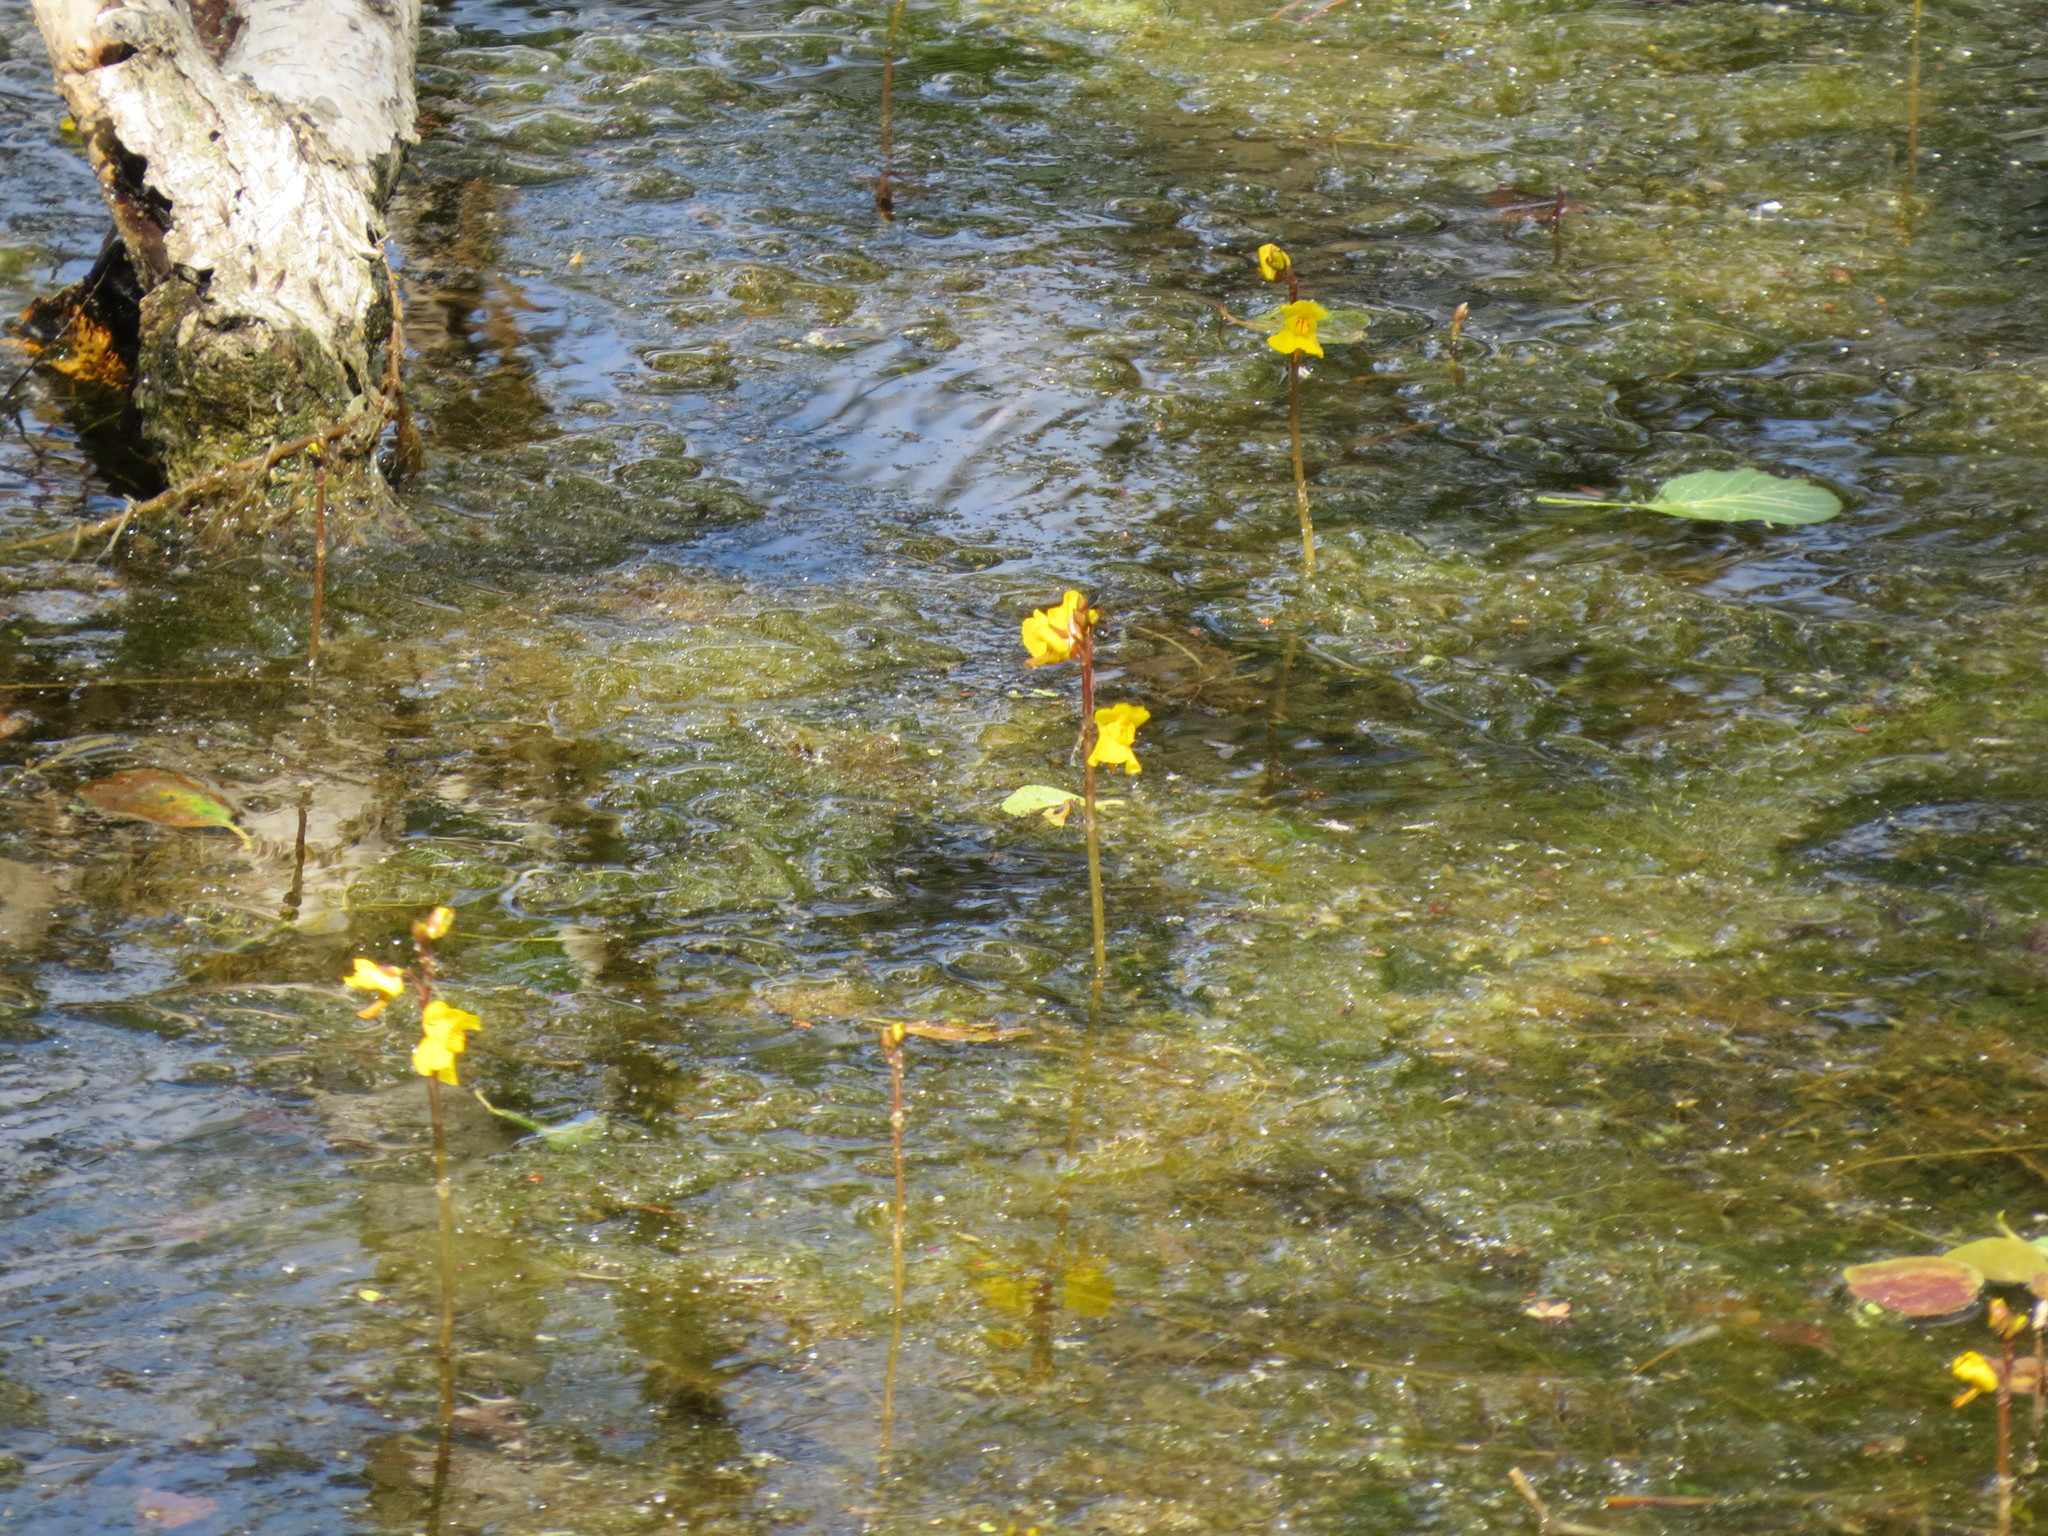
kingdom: Plantae
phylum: Tracheophyta
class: Magnoliopsida
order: Lamiales
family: Lentibulariaceae
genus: Utricularia
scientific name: Utricularia vulgaris
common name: Greater bladderwort
